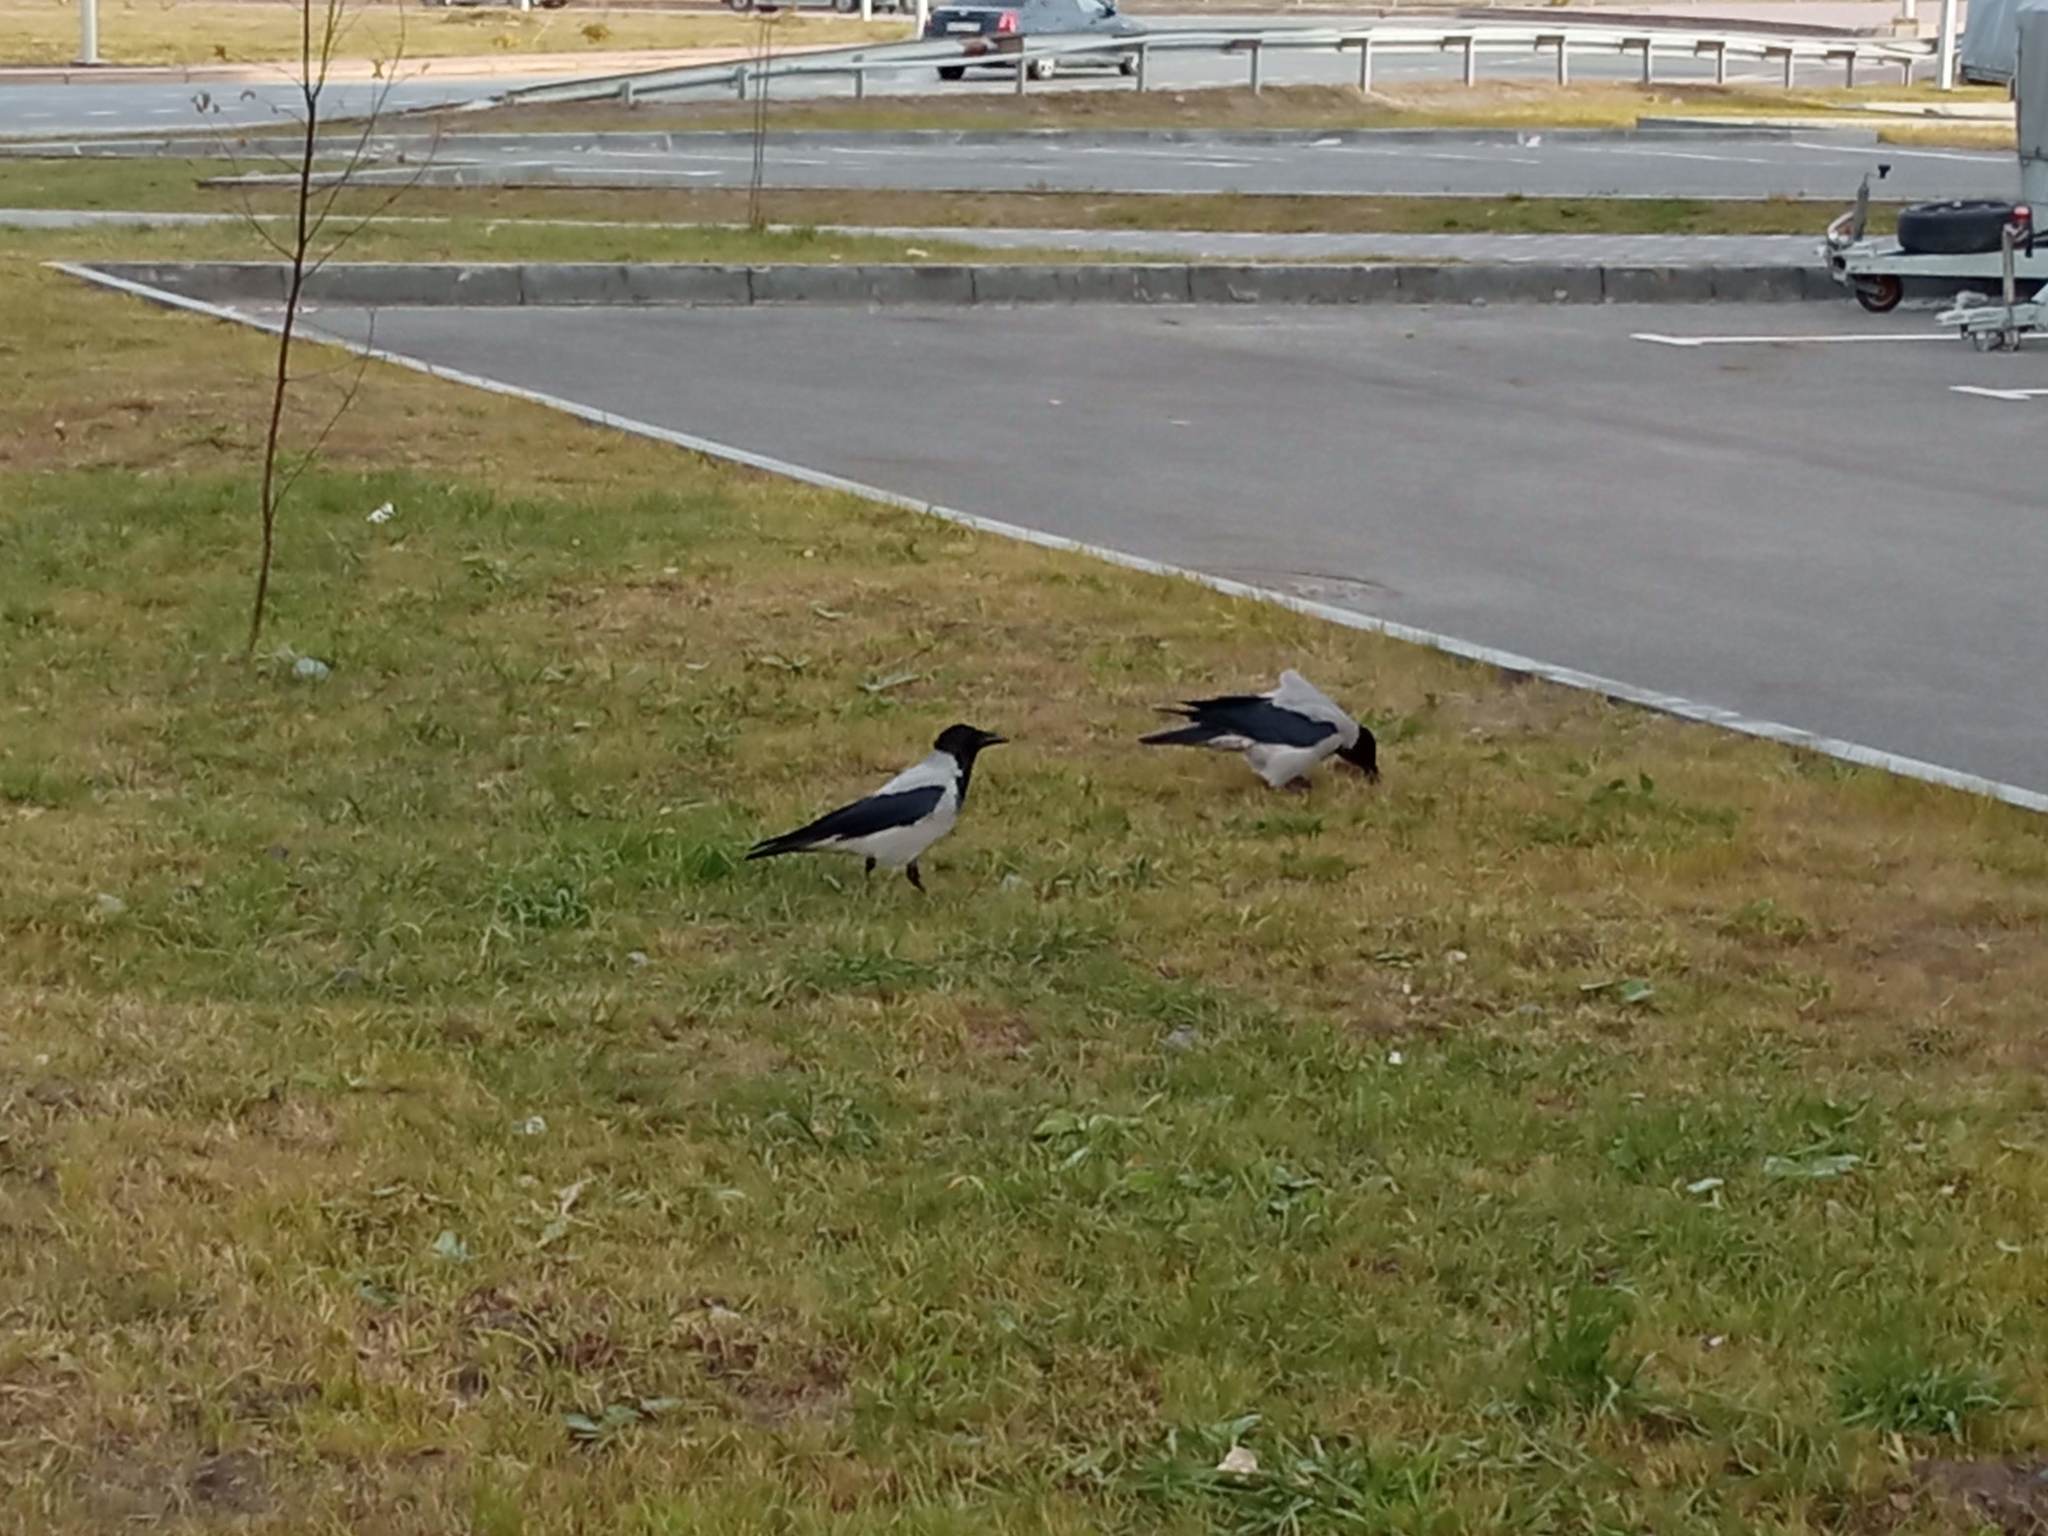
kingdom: Animalia
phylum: Chordata
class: Aves
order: Passeriformes
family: Corvidae
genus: Corvus
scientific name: Corvus cornix
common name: Hooded crow
